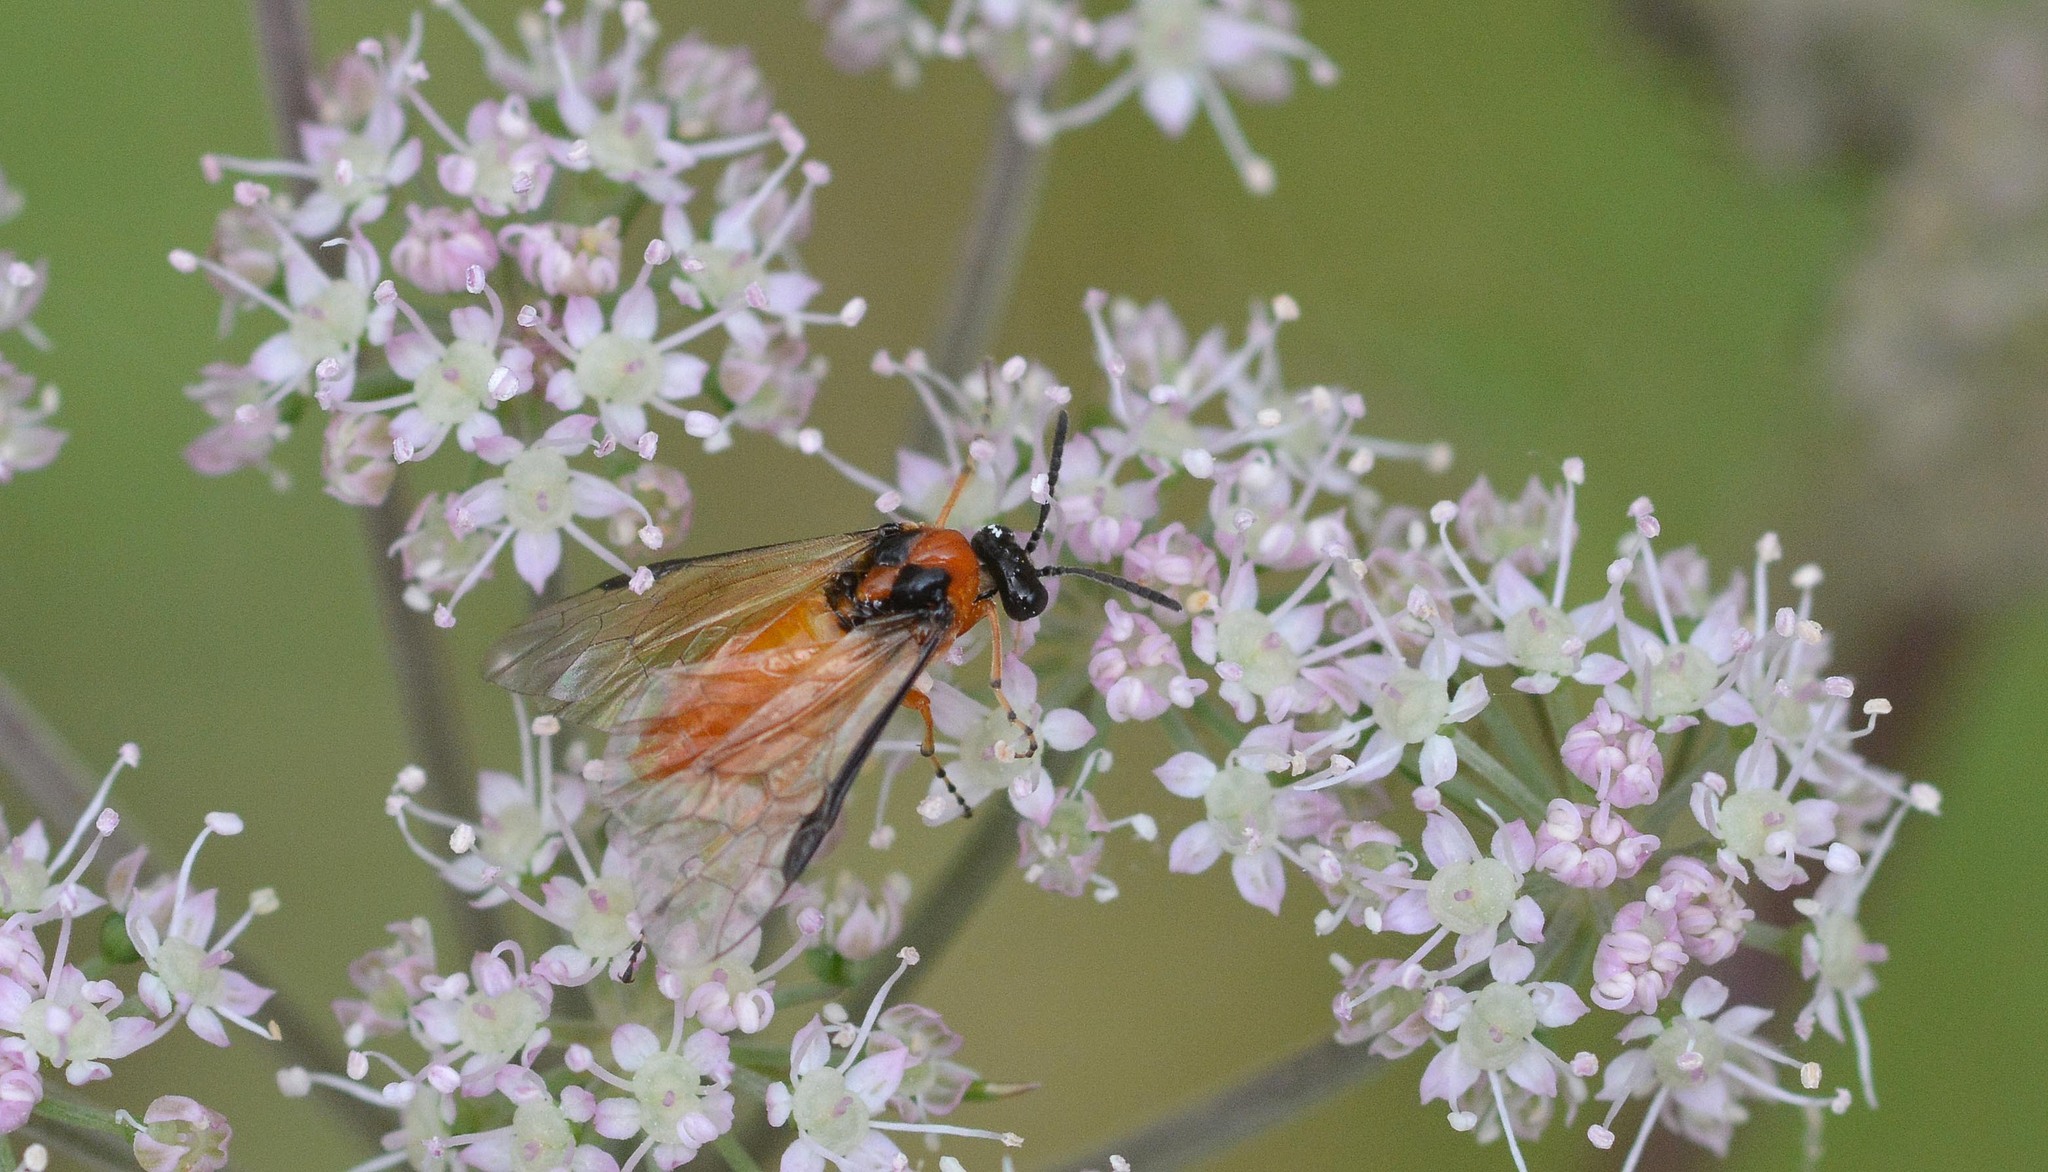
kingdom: Animalia
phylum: Arthropoda
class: Insecta
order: Hymenoptera
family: Tenthredinidae
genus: Athalia
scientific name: Athalia rosae
